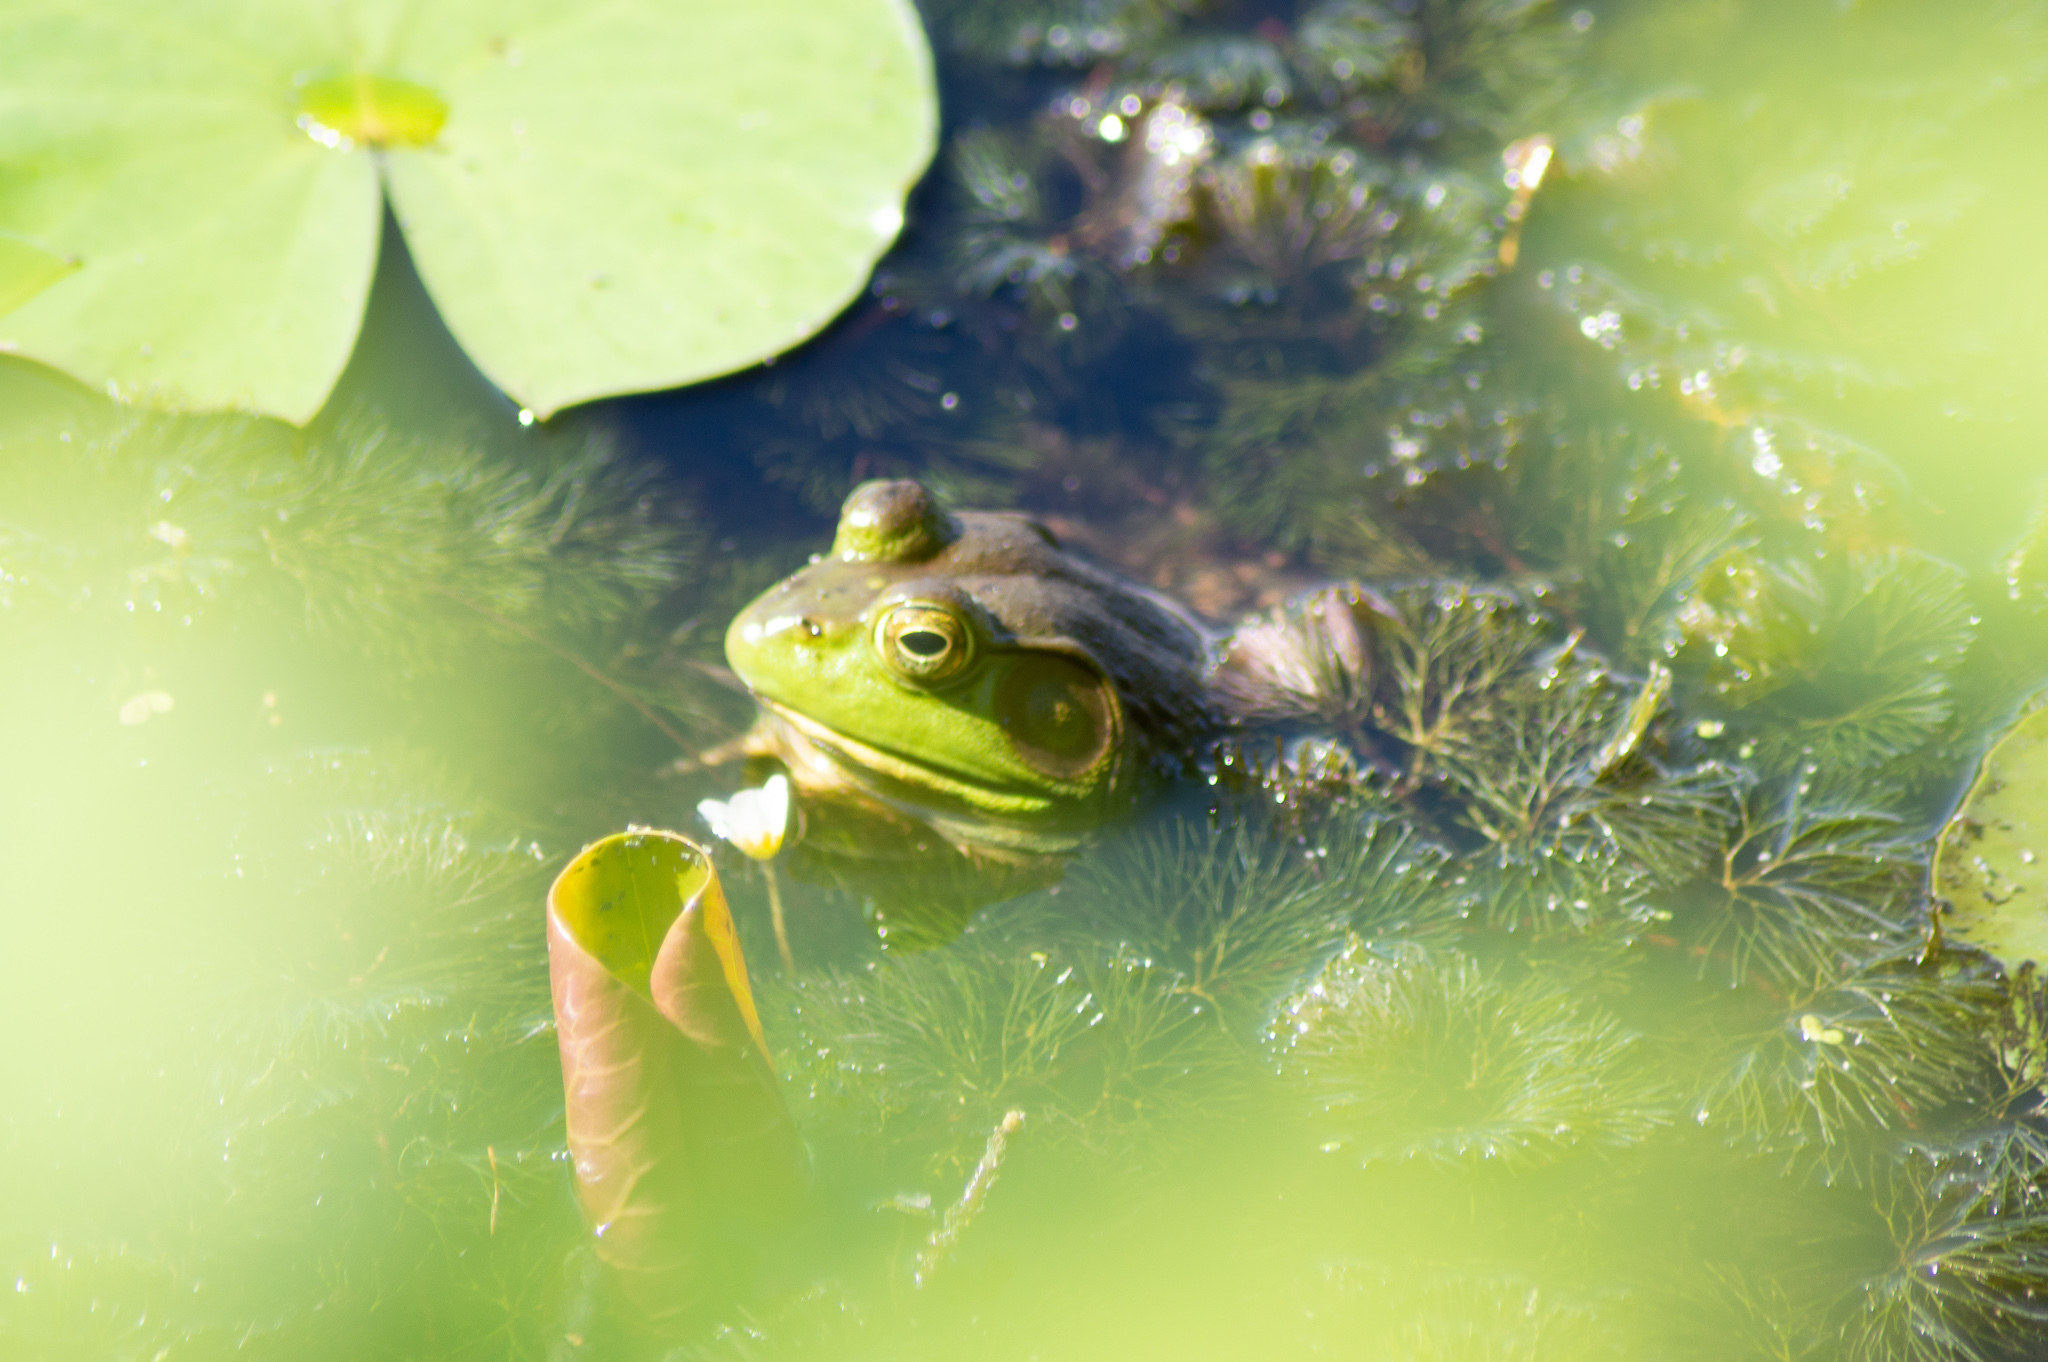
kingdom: Animalia
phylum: Chordata
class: Amphibia
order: Anura
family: Ranidae
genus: Lithobates
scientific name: Lithobates catesbeianus
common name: American bullfrog
